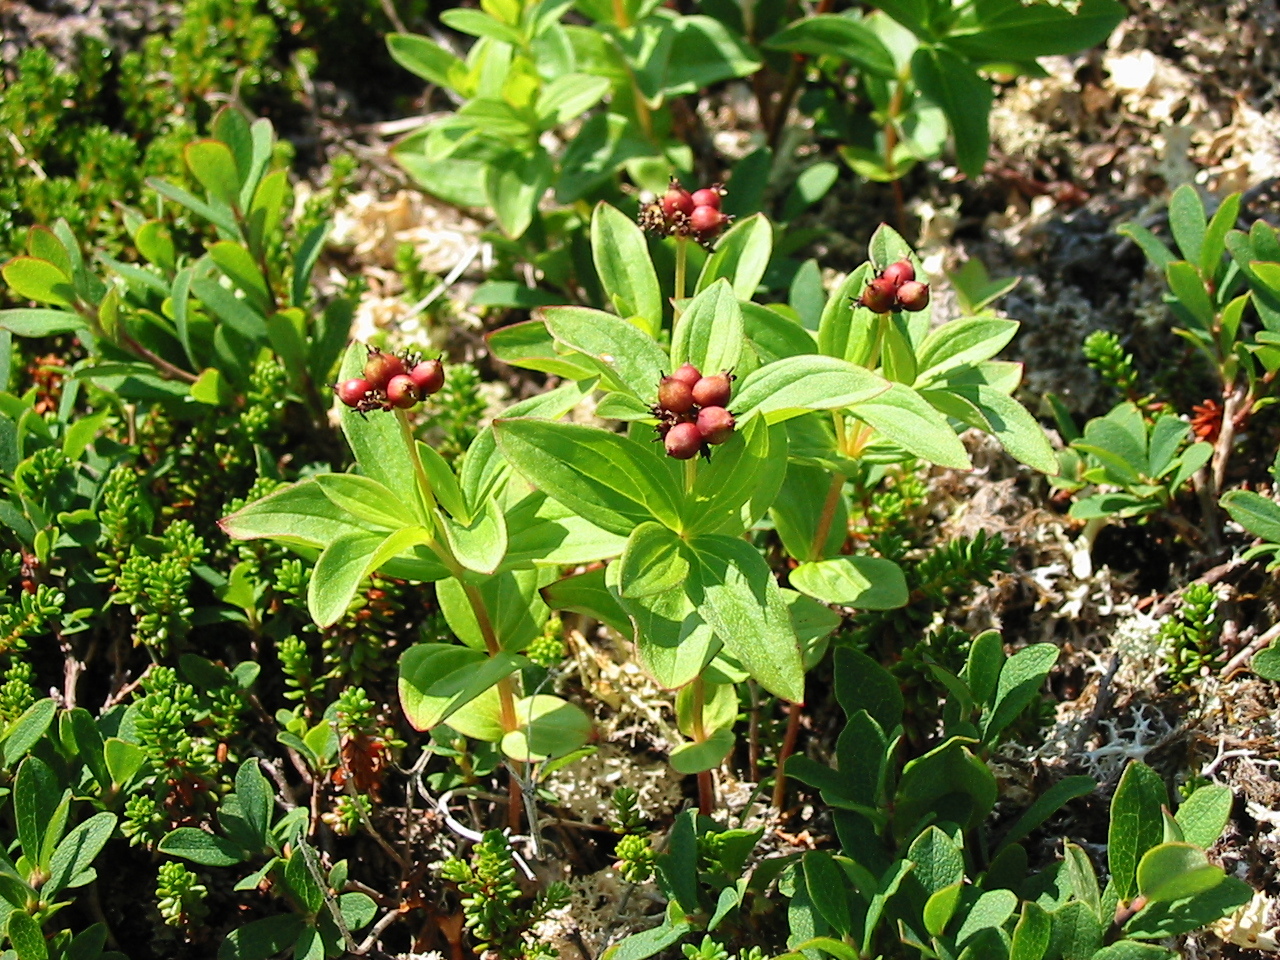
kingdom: Plantae
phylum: Tracheophyta
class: Magnoliopsida
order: Cornales
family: Cornaceae
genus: Cornus
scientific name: Cornus suecica
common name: Dwarf cornel
